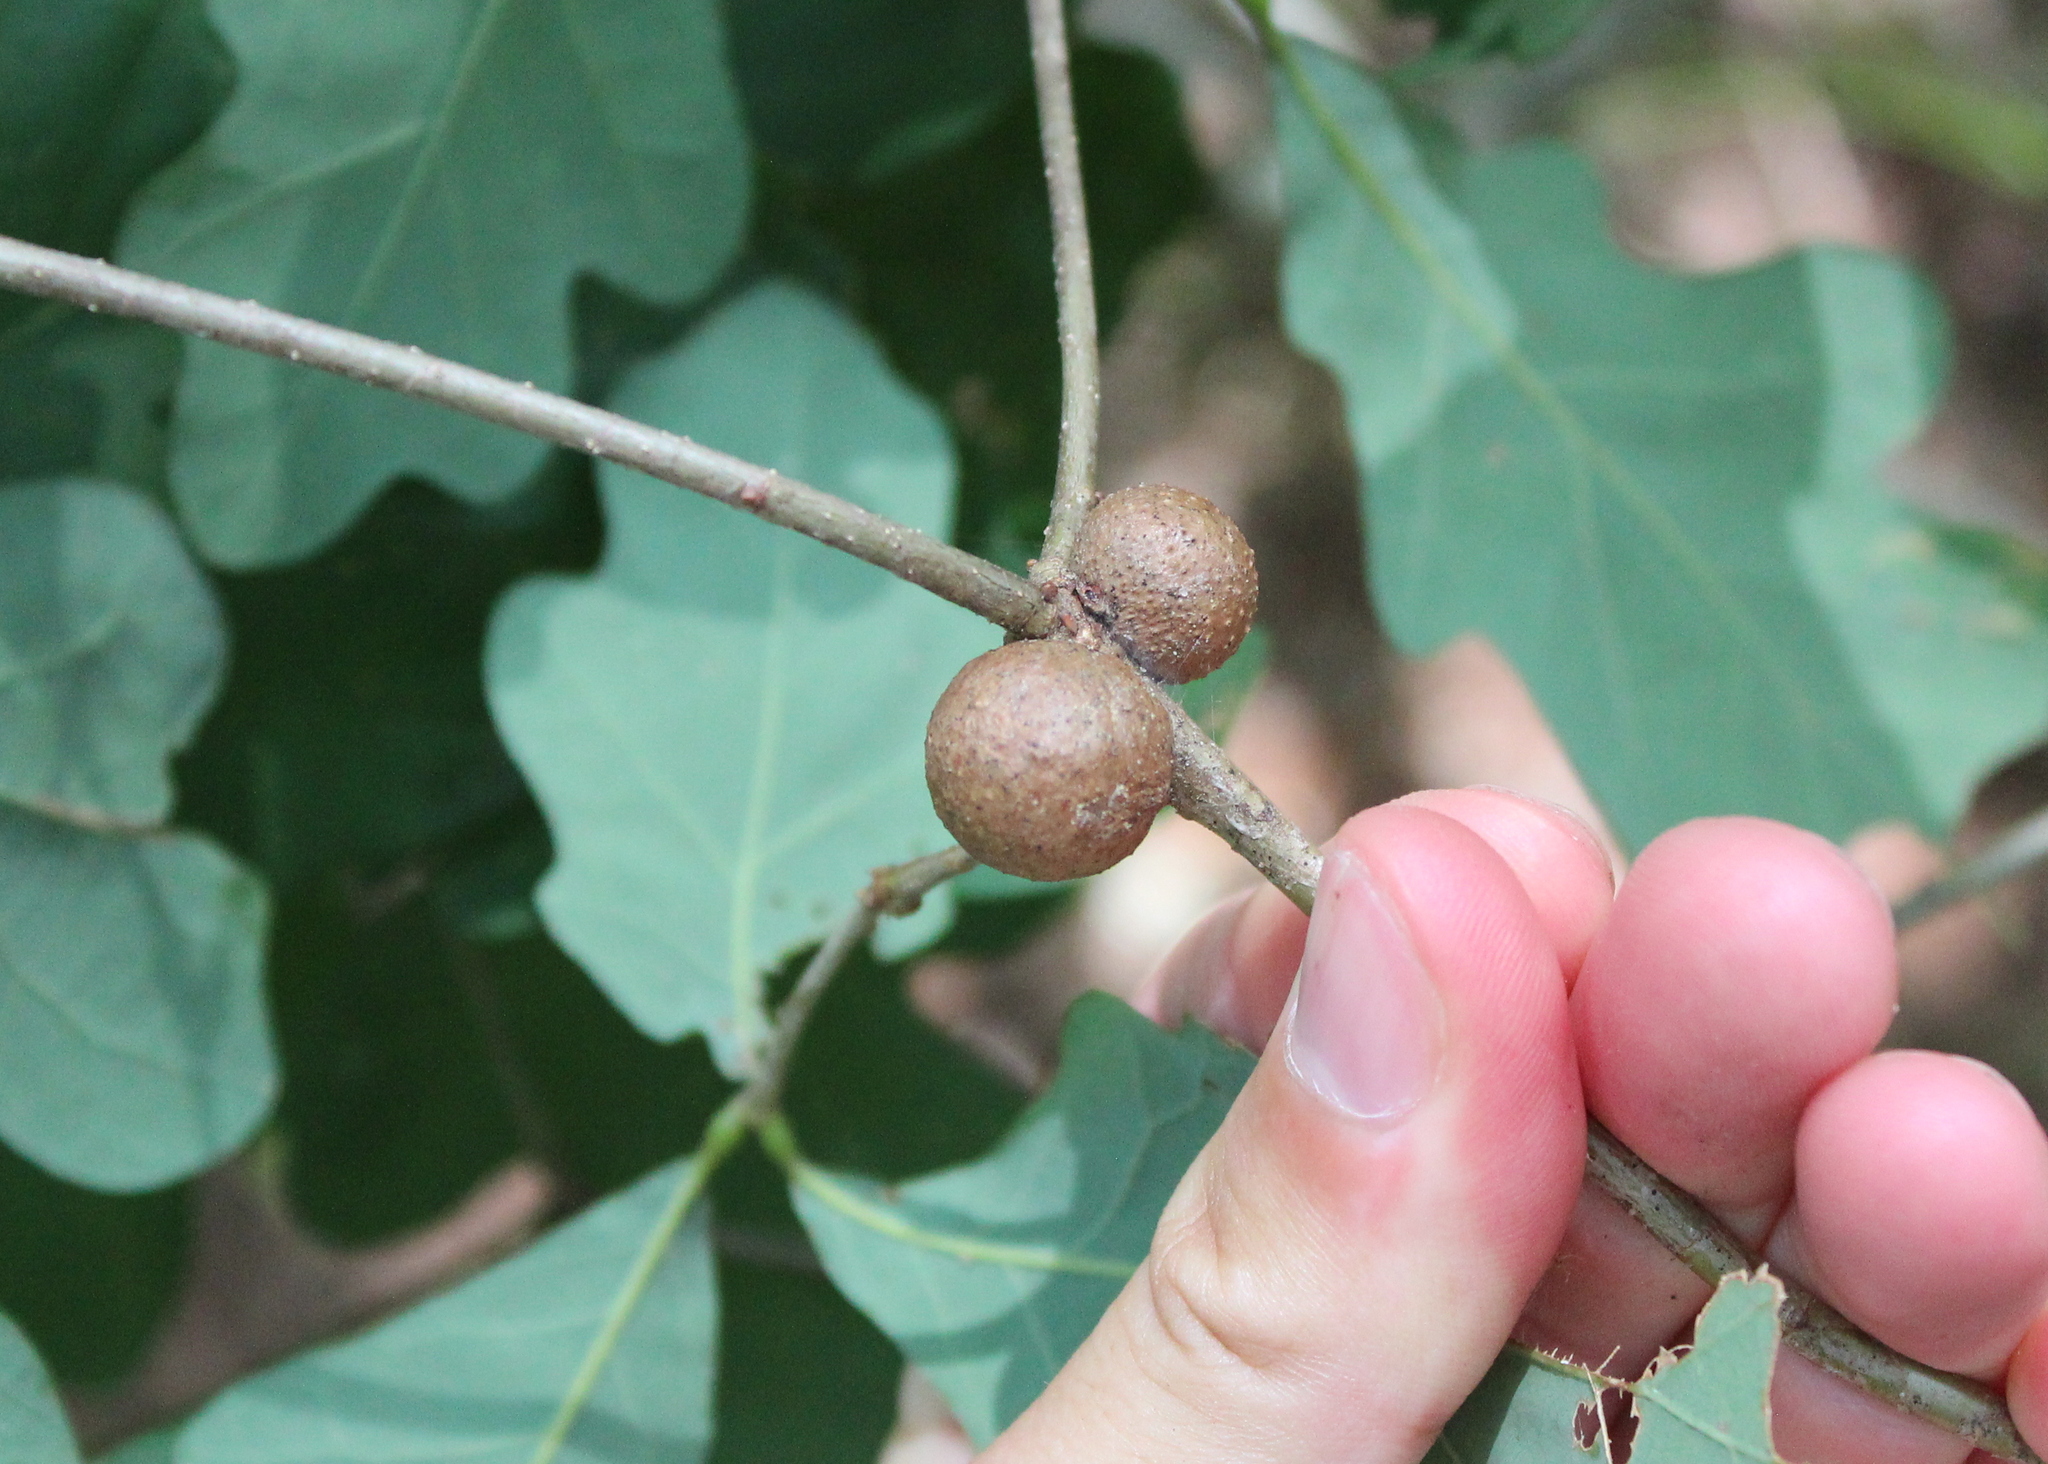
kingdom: Animalia
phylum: Arthropoda
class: Insecta
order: Hymenoptera
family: Cynipidae
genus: Disholcaspis
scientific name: Disholcaspis quercusglobulus
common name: Round bullet gall wasp
